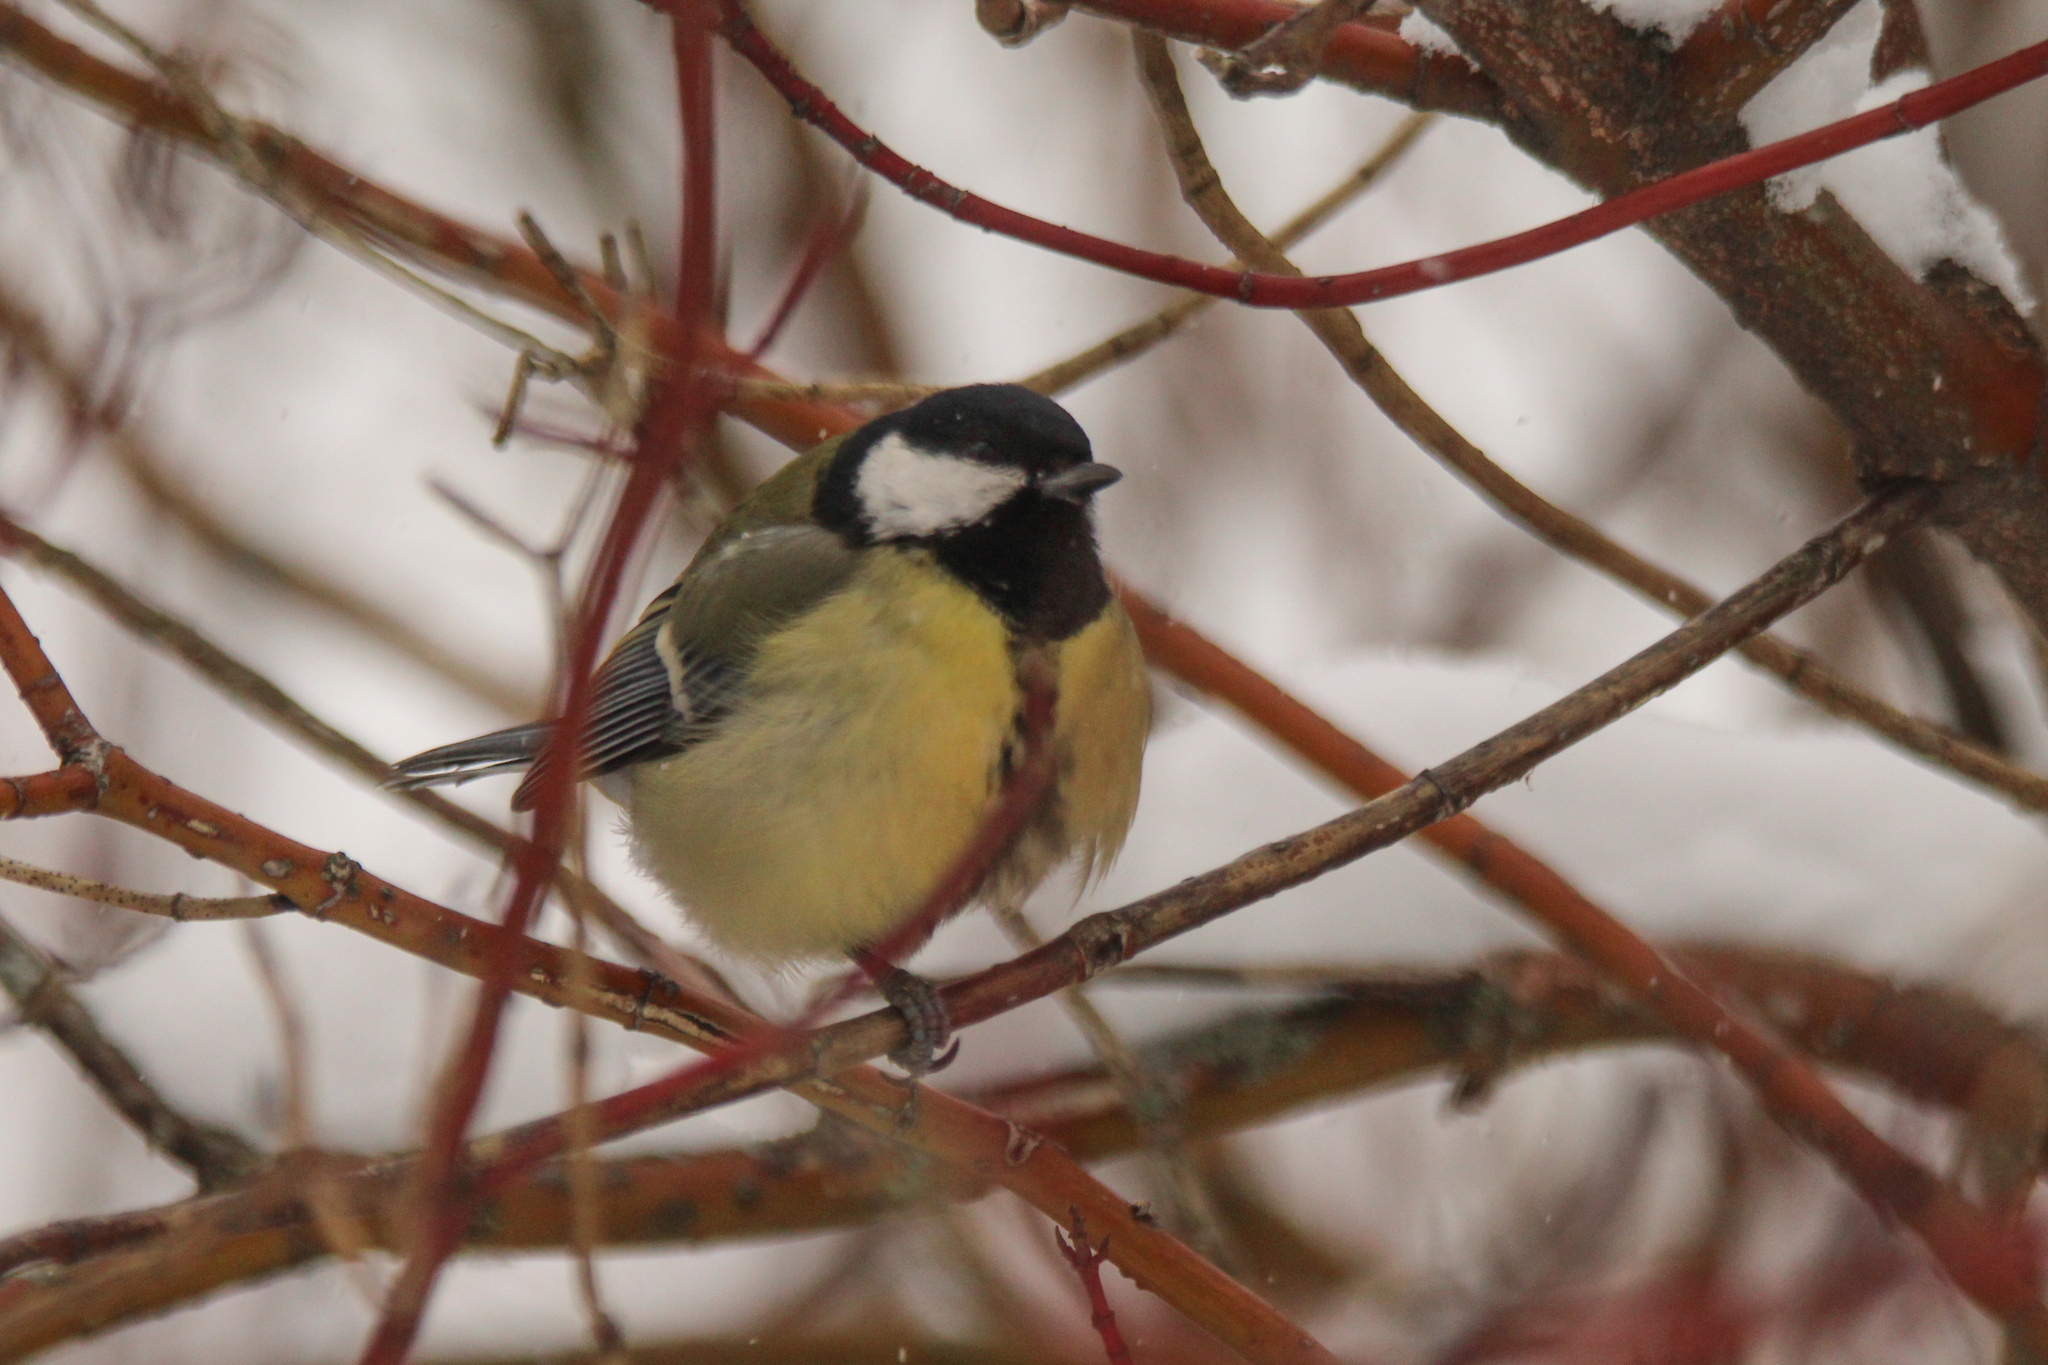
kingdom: Animalia
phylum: Chordata
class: Aves
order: Passeriformes
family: Paridae
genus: Parus
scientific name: Parus major
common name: Great tit
